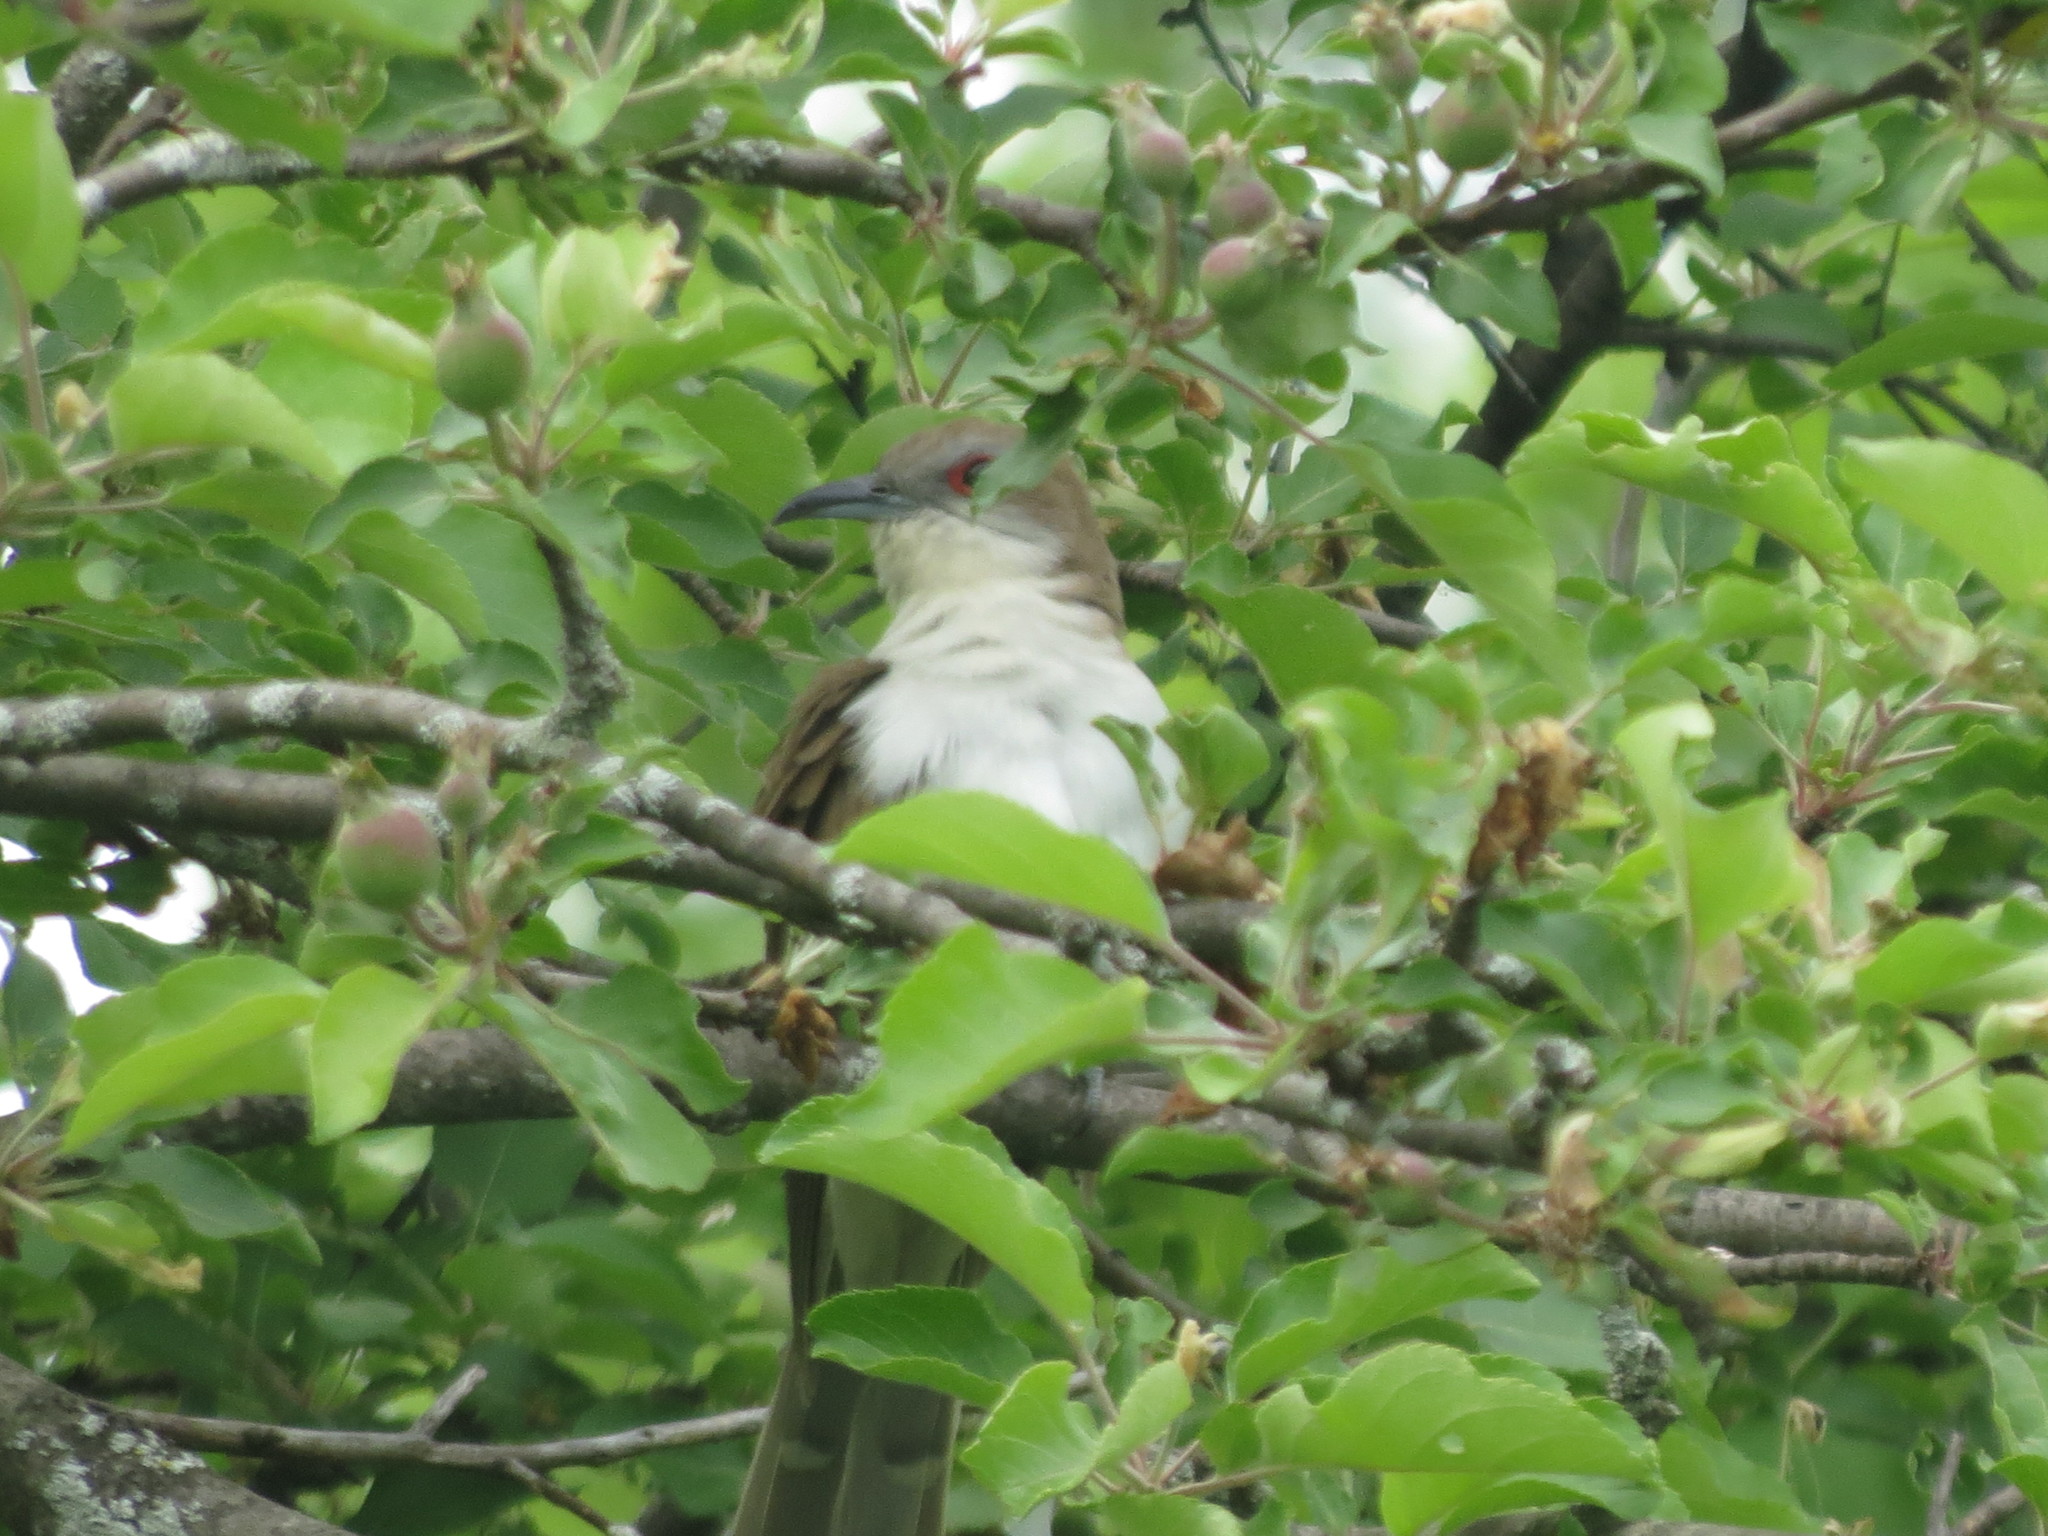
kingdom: Animalia
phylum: Chordata
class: Aves
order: Cuculiformes
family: Cuculidae
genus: Coccyzus
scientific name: Coccyzus erythropthalmus
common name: Black-billed cuckoo
